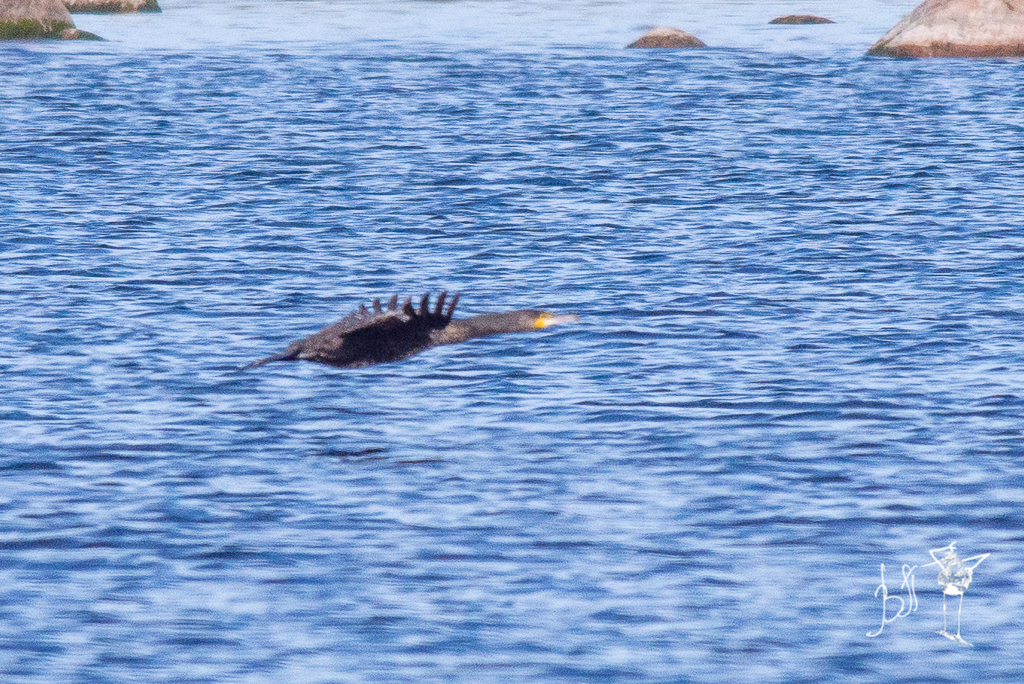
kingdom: Animalia
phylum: Chordata
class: Aves
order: Suliformes
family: Phalacrocoracidae
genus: Phalacrocorax
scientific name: Phalacrocorax carbo
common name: Great cormorant
